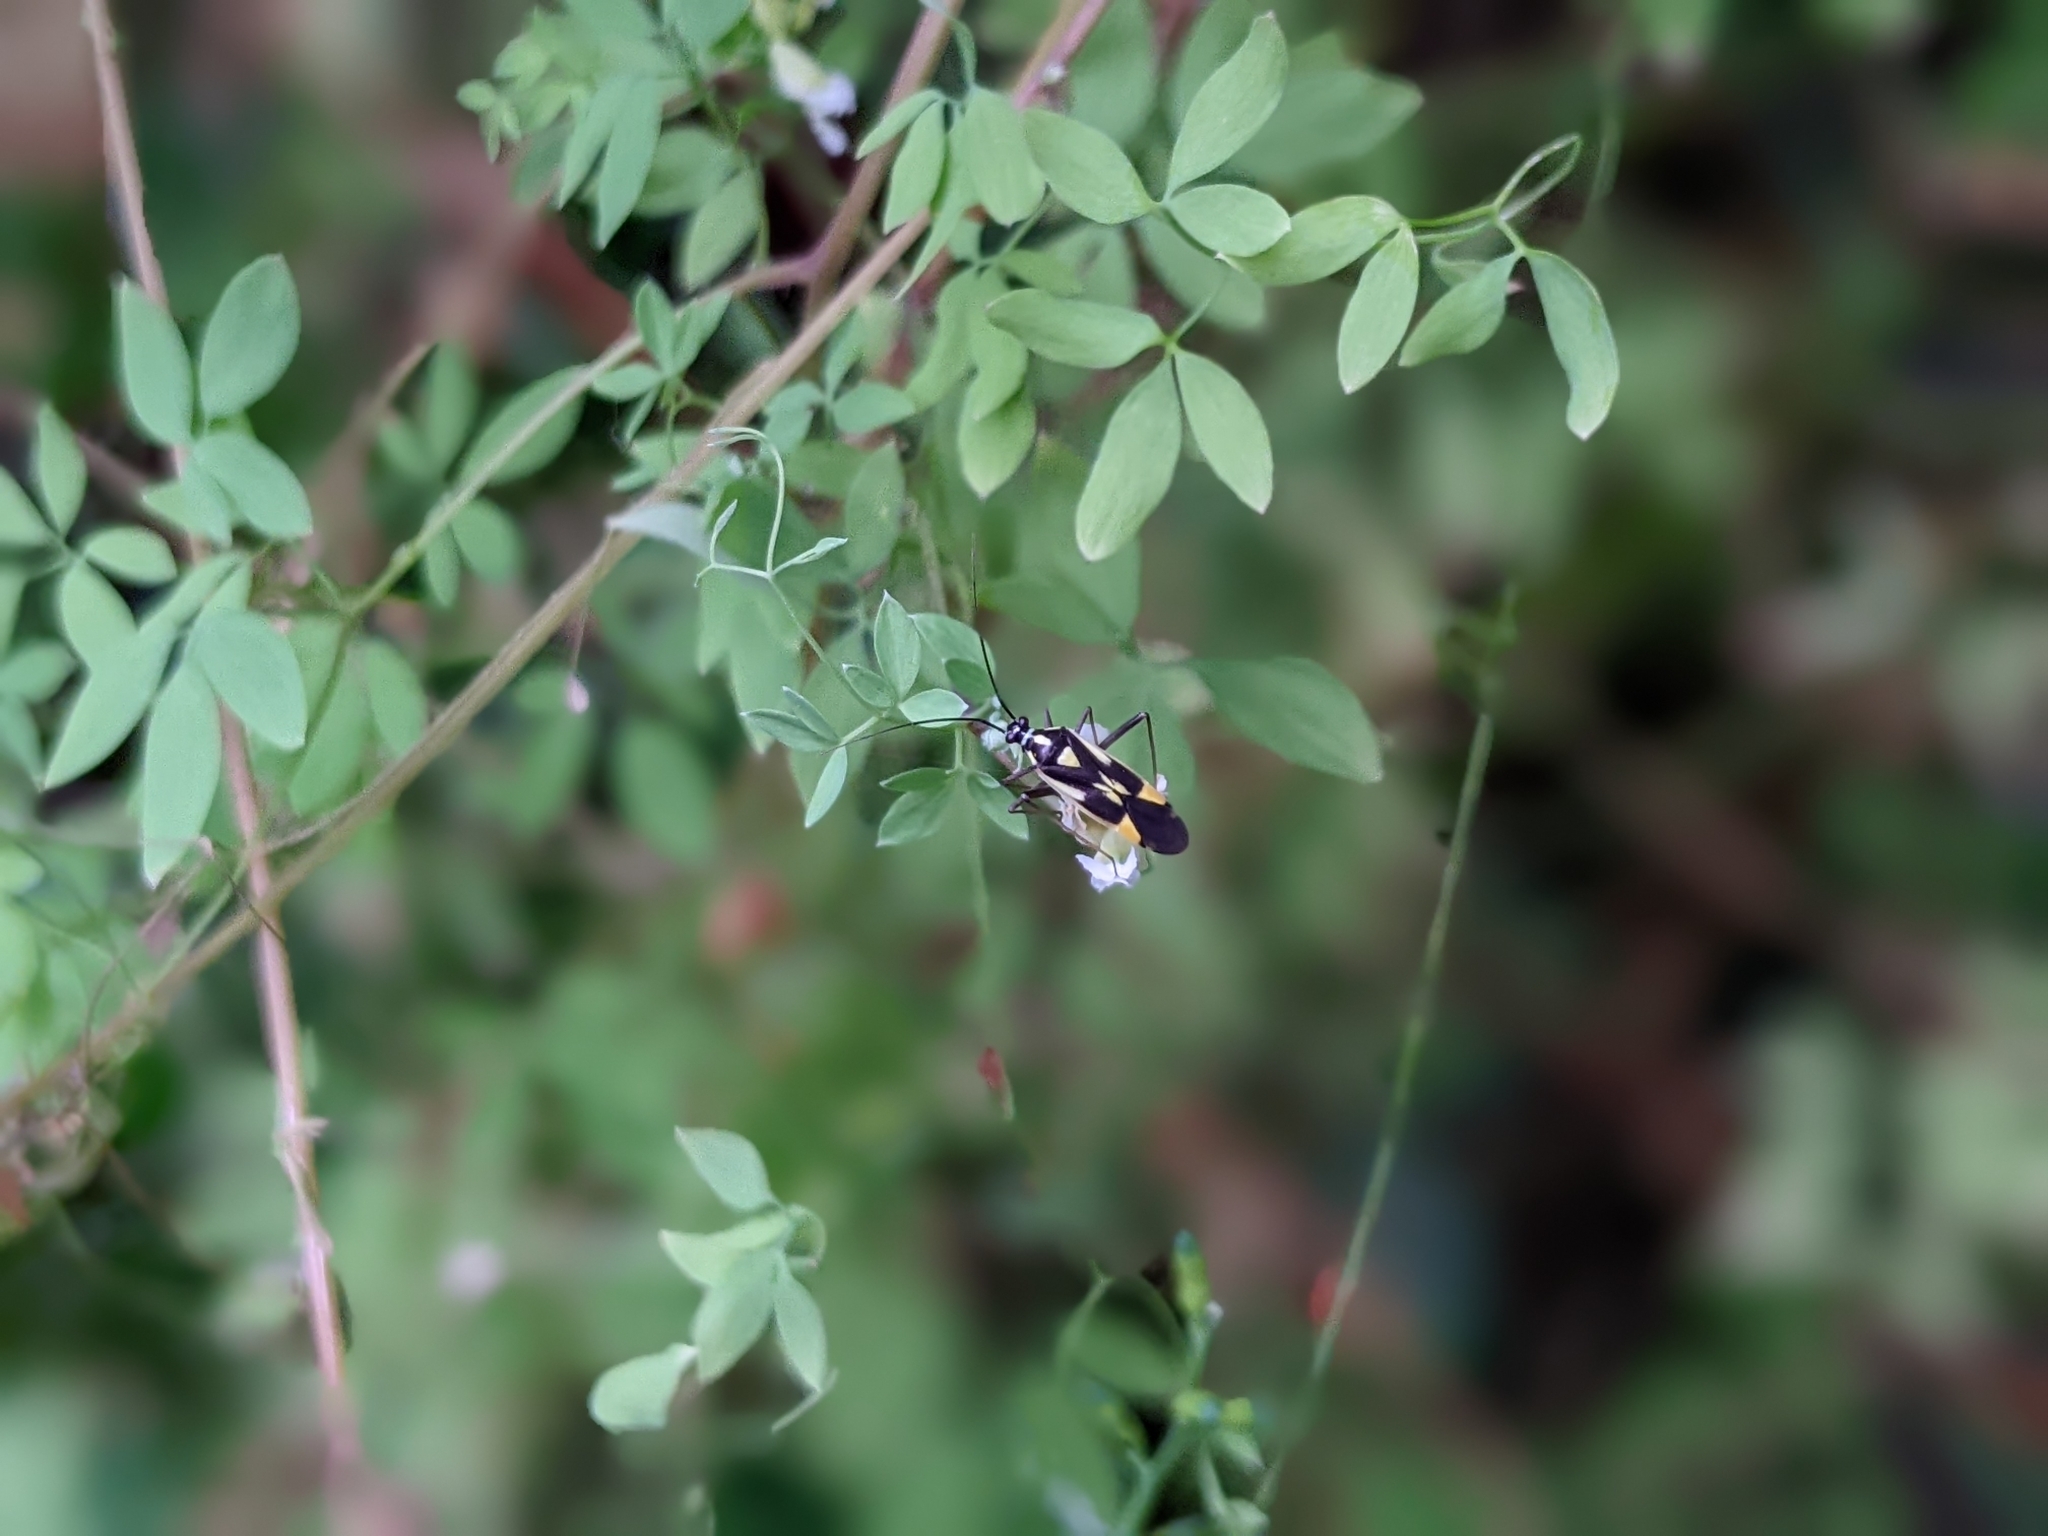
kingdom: Animalia
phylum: Arthropoda
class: Insecta
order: Hemiptera
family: Miridae
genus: Grypocoris
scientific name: Grypocoris stysi
